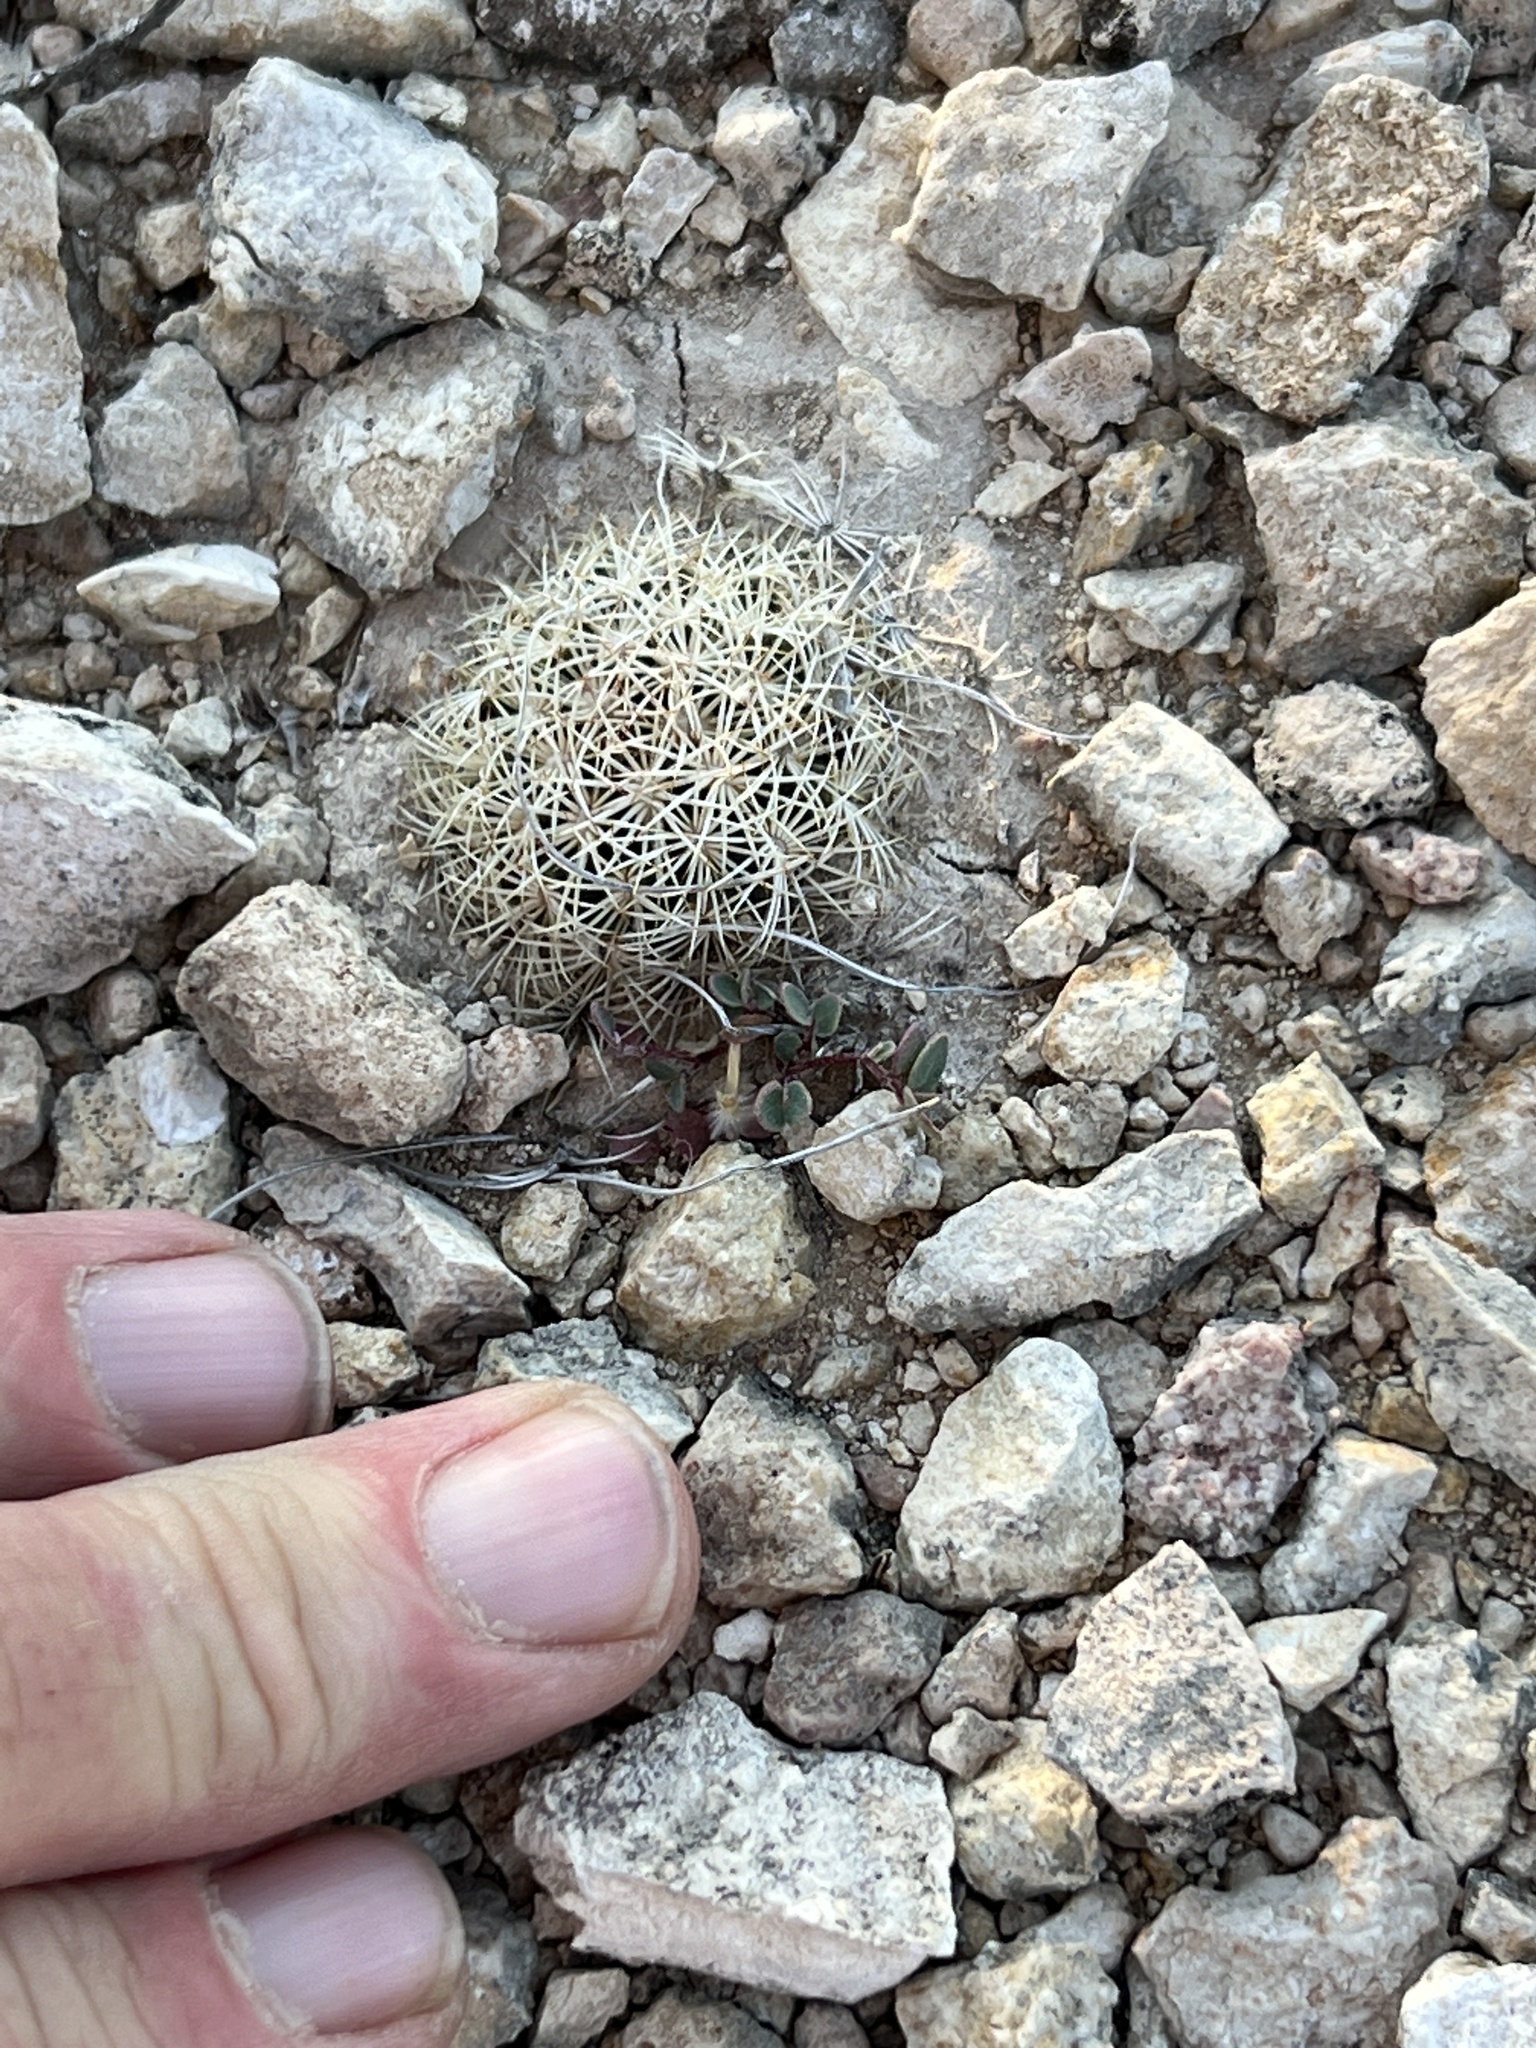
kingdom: Plantae
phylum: Tracheophyta
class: Magnoliopsida
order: Caryophyllales
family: Cactaceae
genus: Coryphantha
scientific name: Coryphantha echinus
